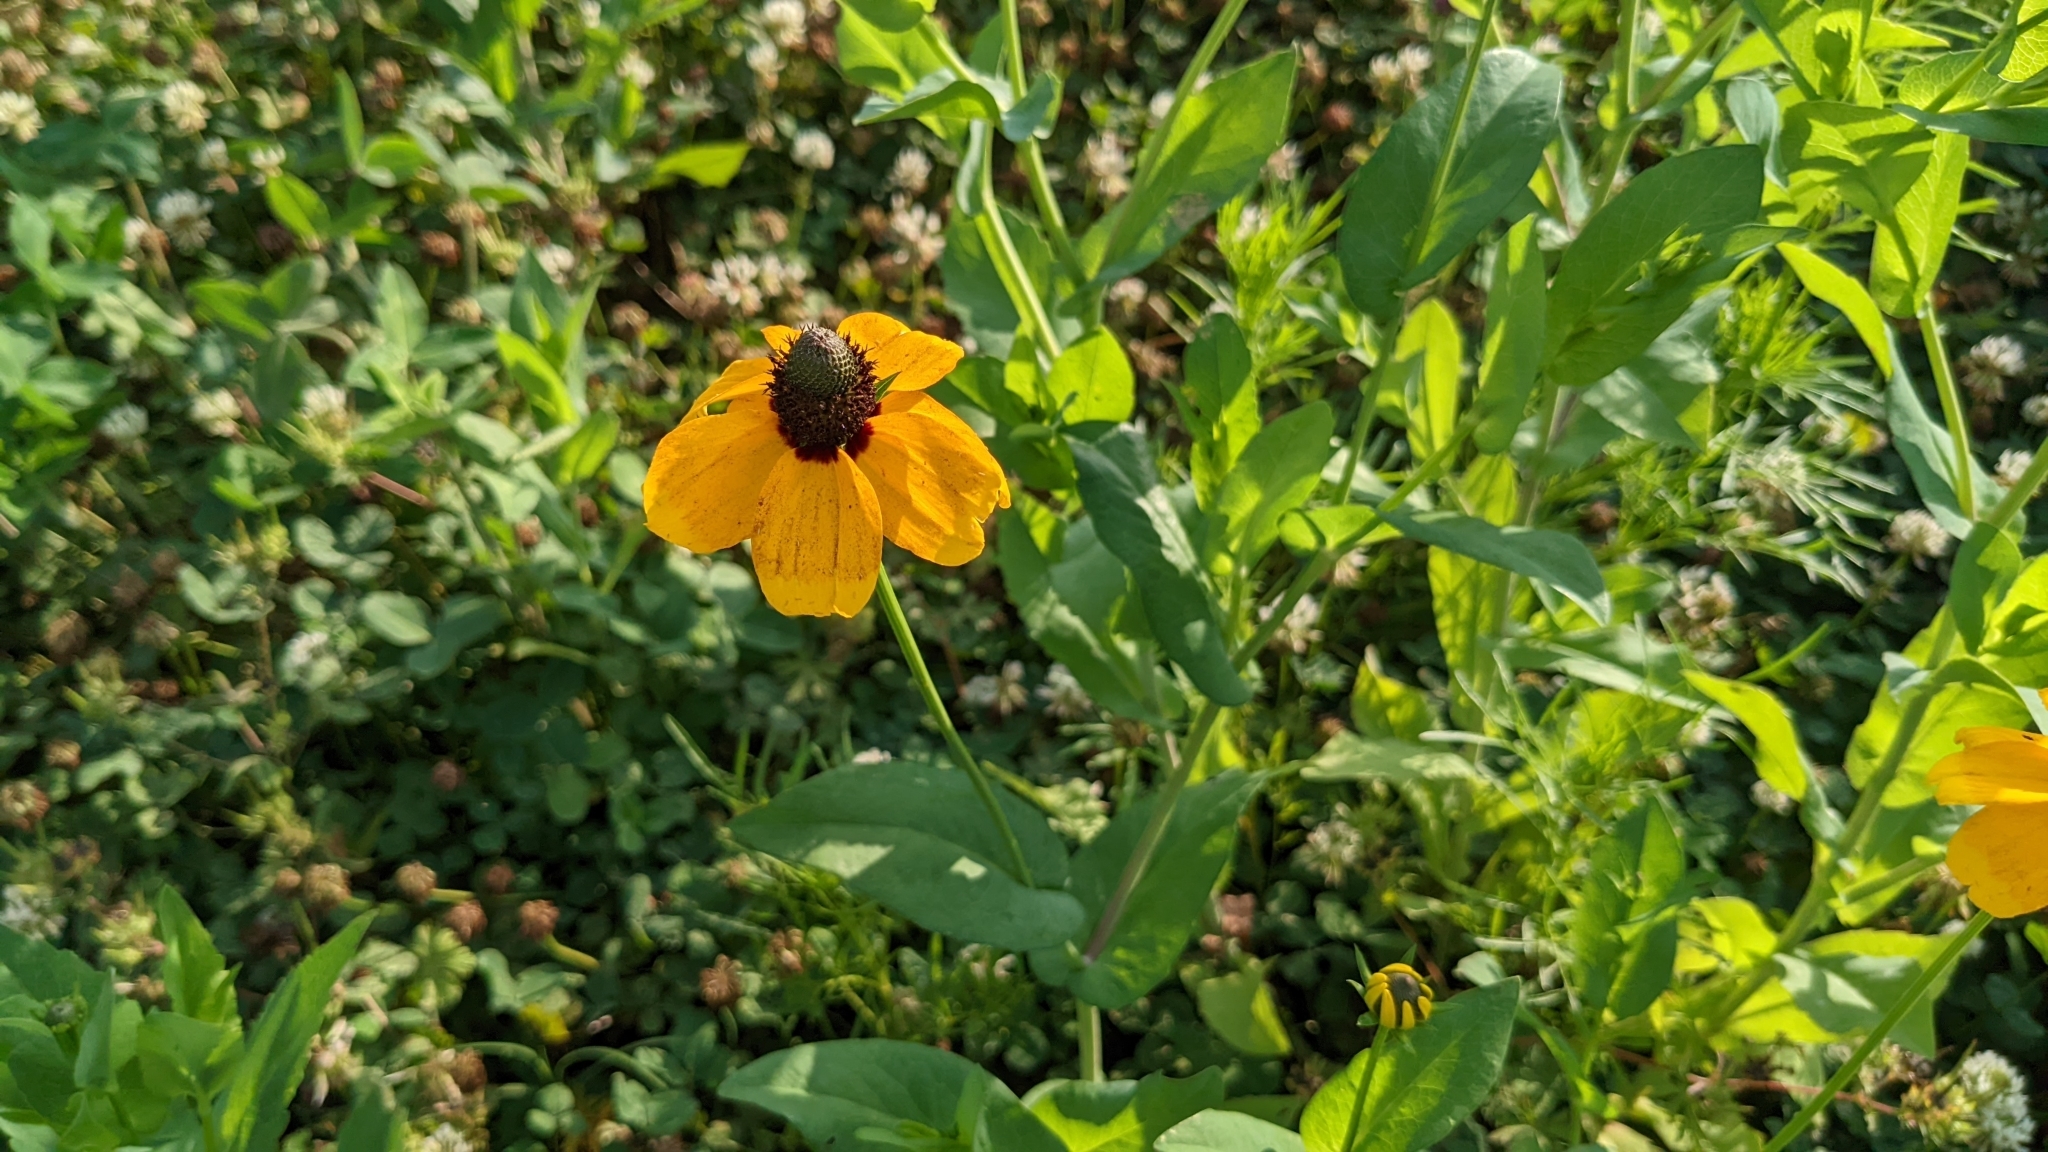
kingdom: Plantae
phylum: Tracheophyta
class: Magnoliopsida
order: Asterales
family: Asteraceae
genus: Rudbeckia
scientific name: Rudbeckia amplexicaulis
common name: Clasping-leaf coneflower
